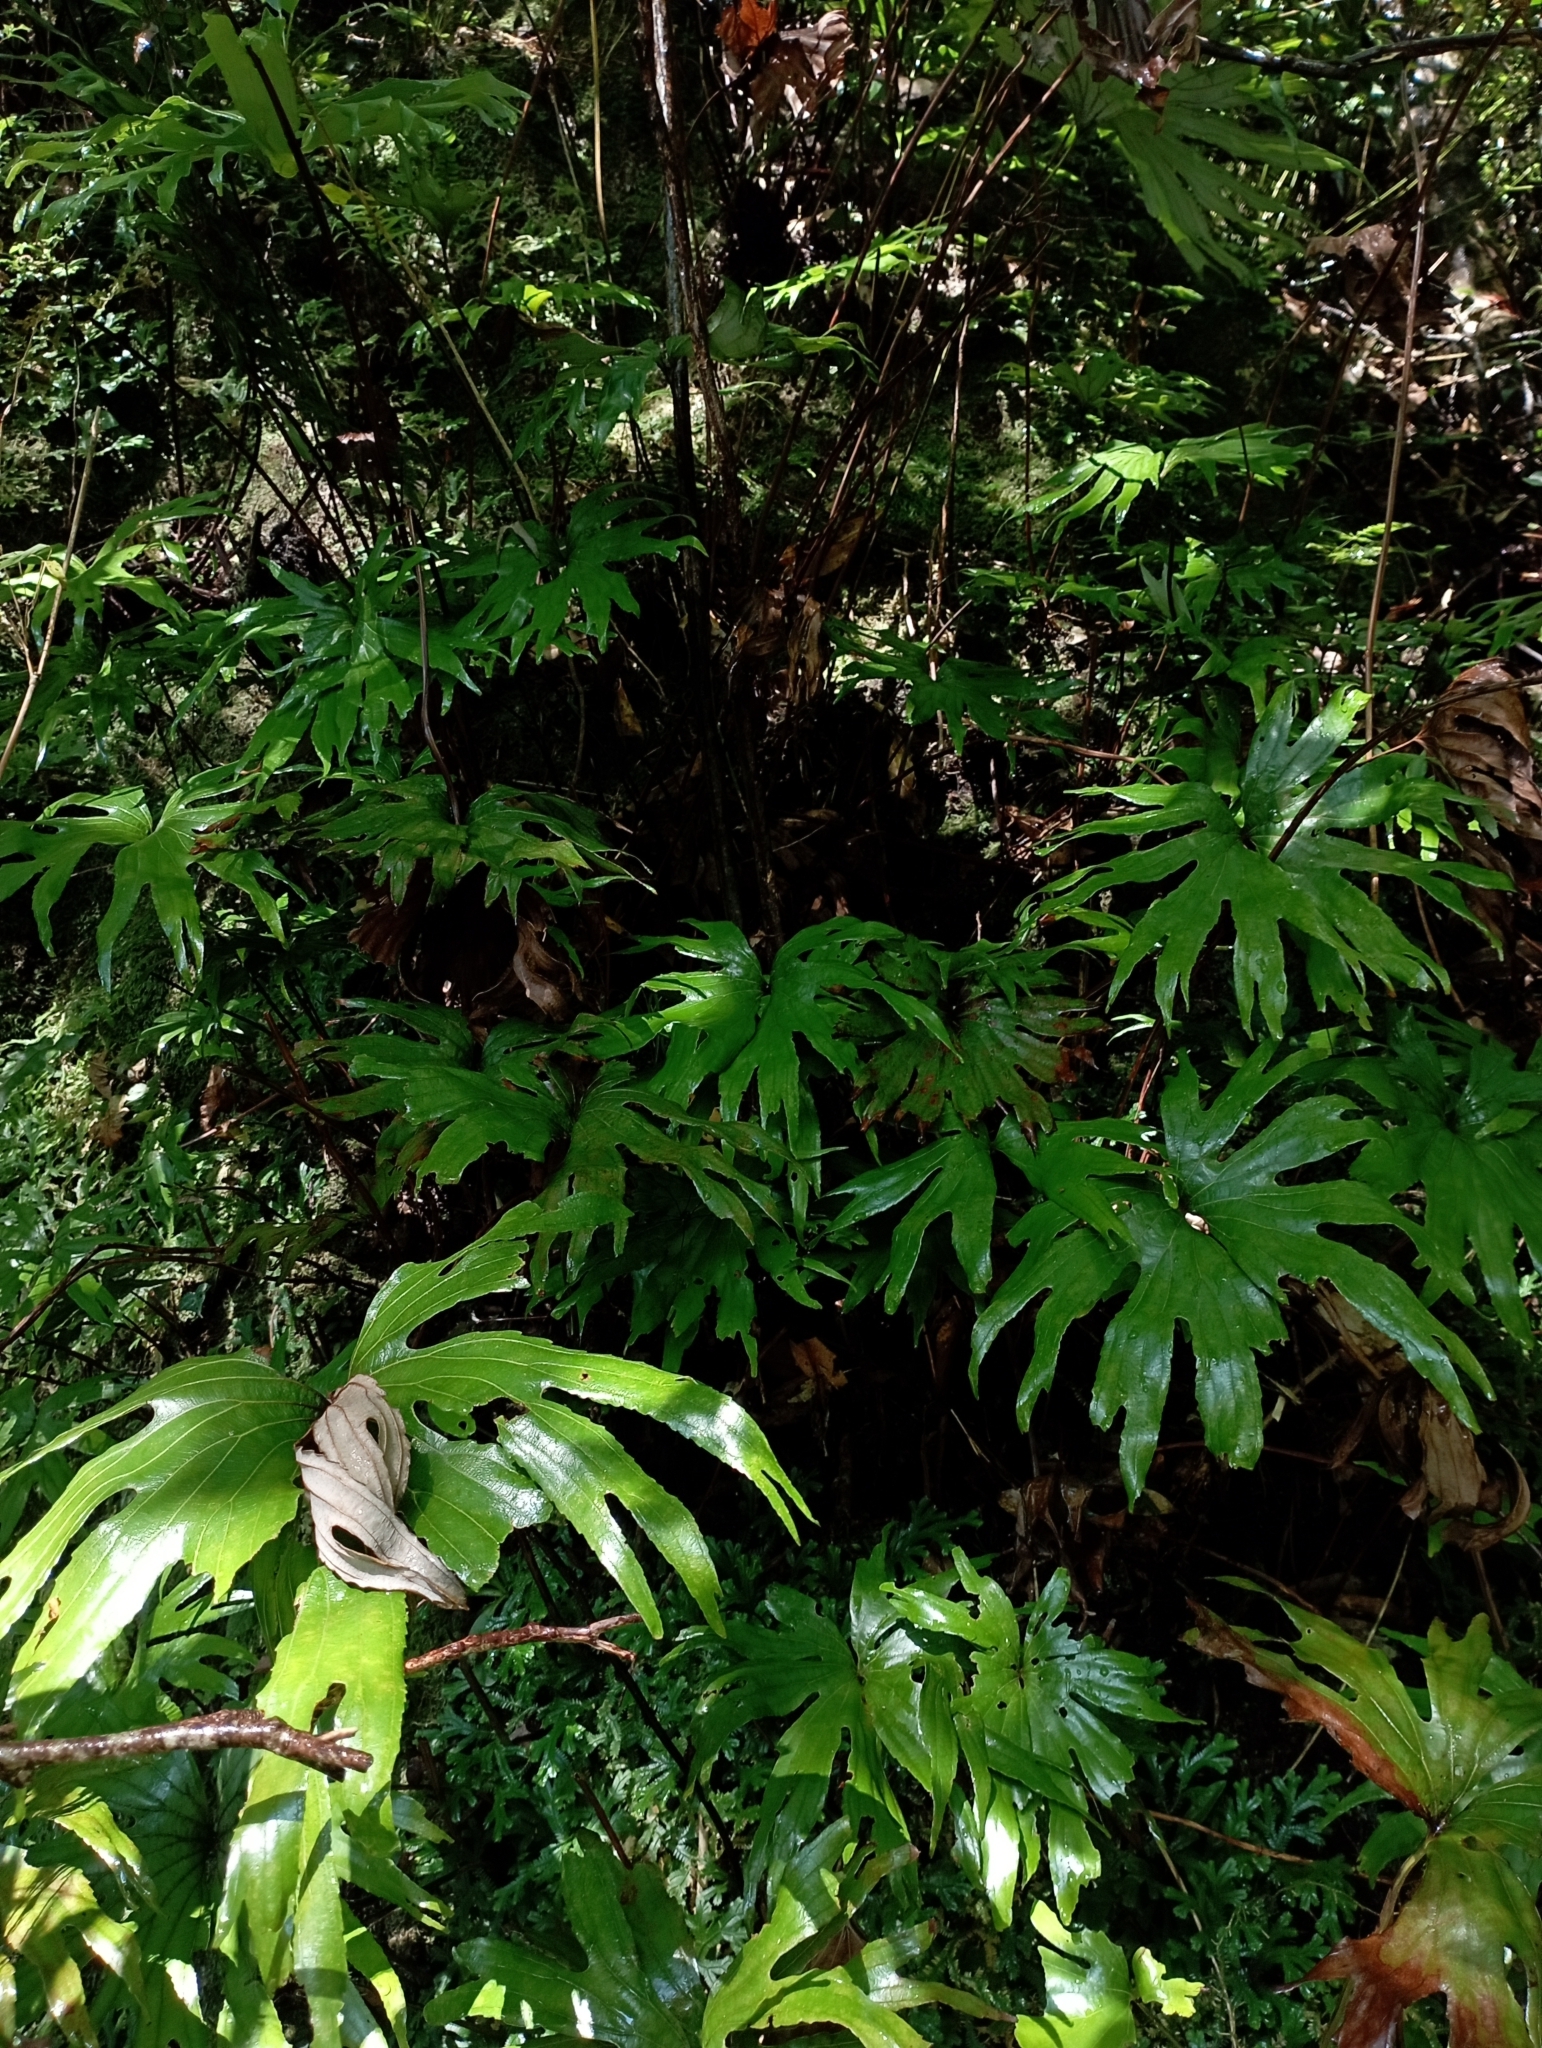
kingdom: Plantae
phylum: Tracheophyta
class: Polypodiopsida
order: Gleicheniales
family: Dipteridaceae
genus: Dipteris
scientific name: Dipteris conjugata
